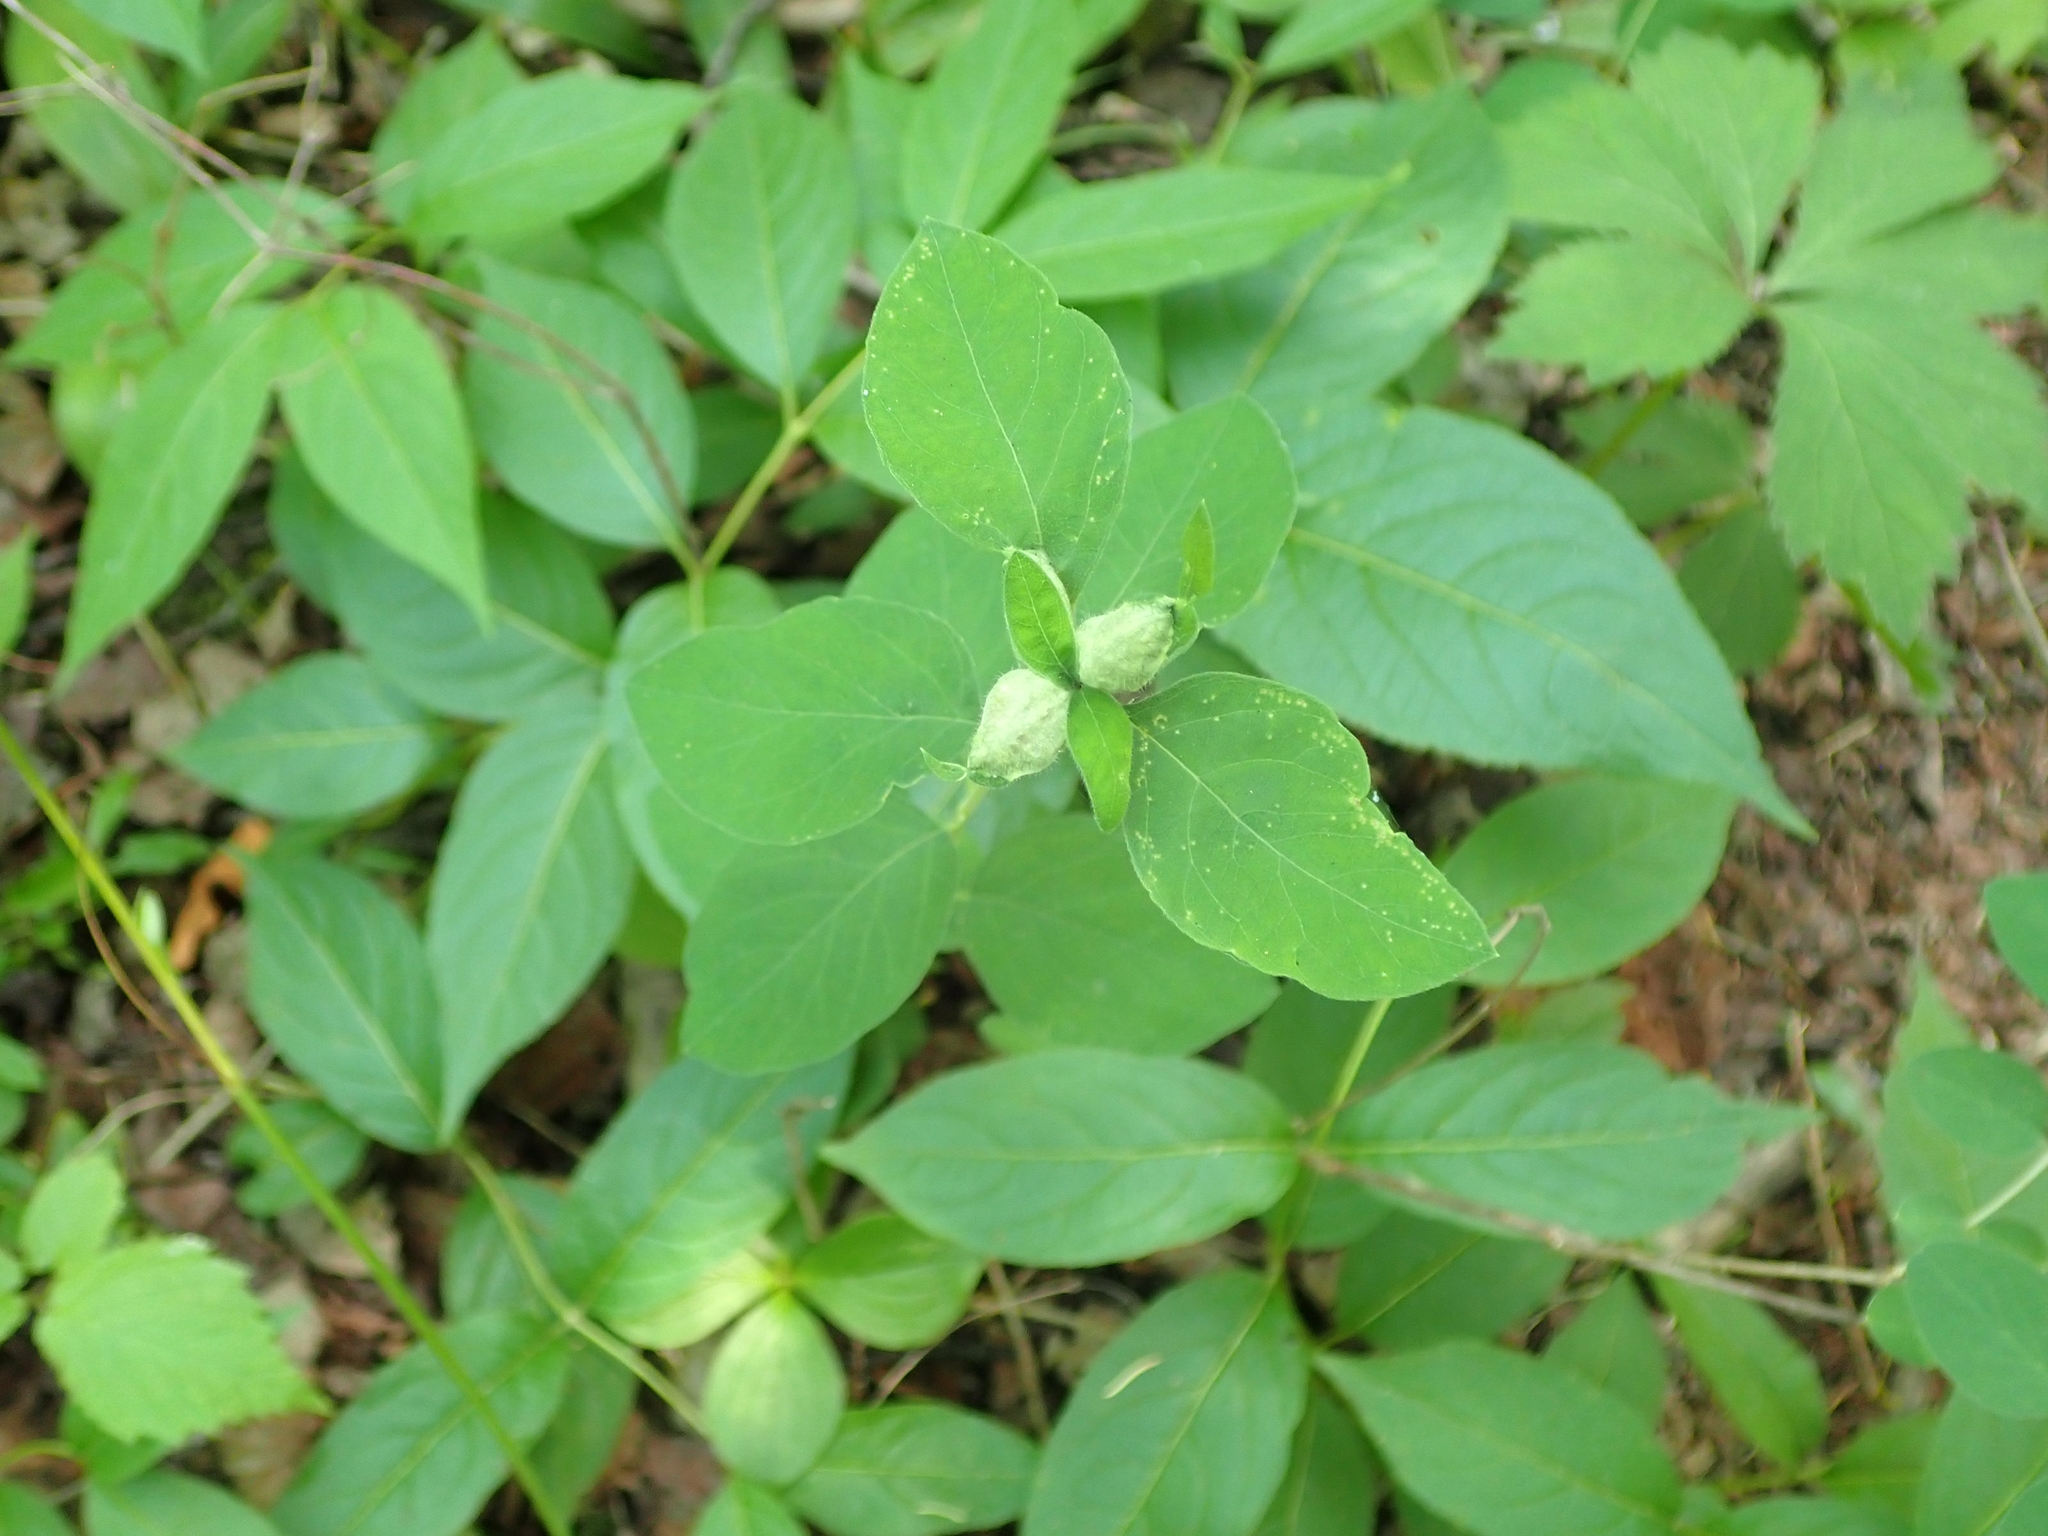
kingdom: Plantae
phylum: Tracheophyta
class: Magnoliopsida
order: Dipsacales
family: Caprifoliaceae
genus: Symphoricarpos
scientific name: Symphoricarpos occidentalis
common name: Wolfberry
